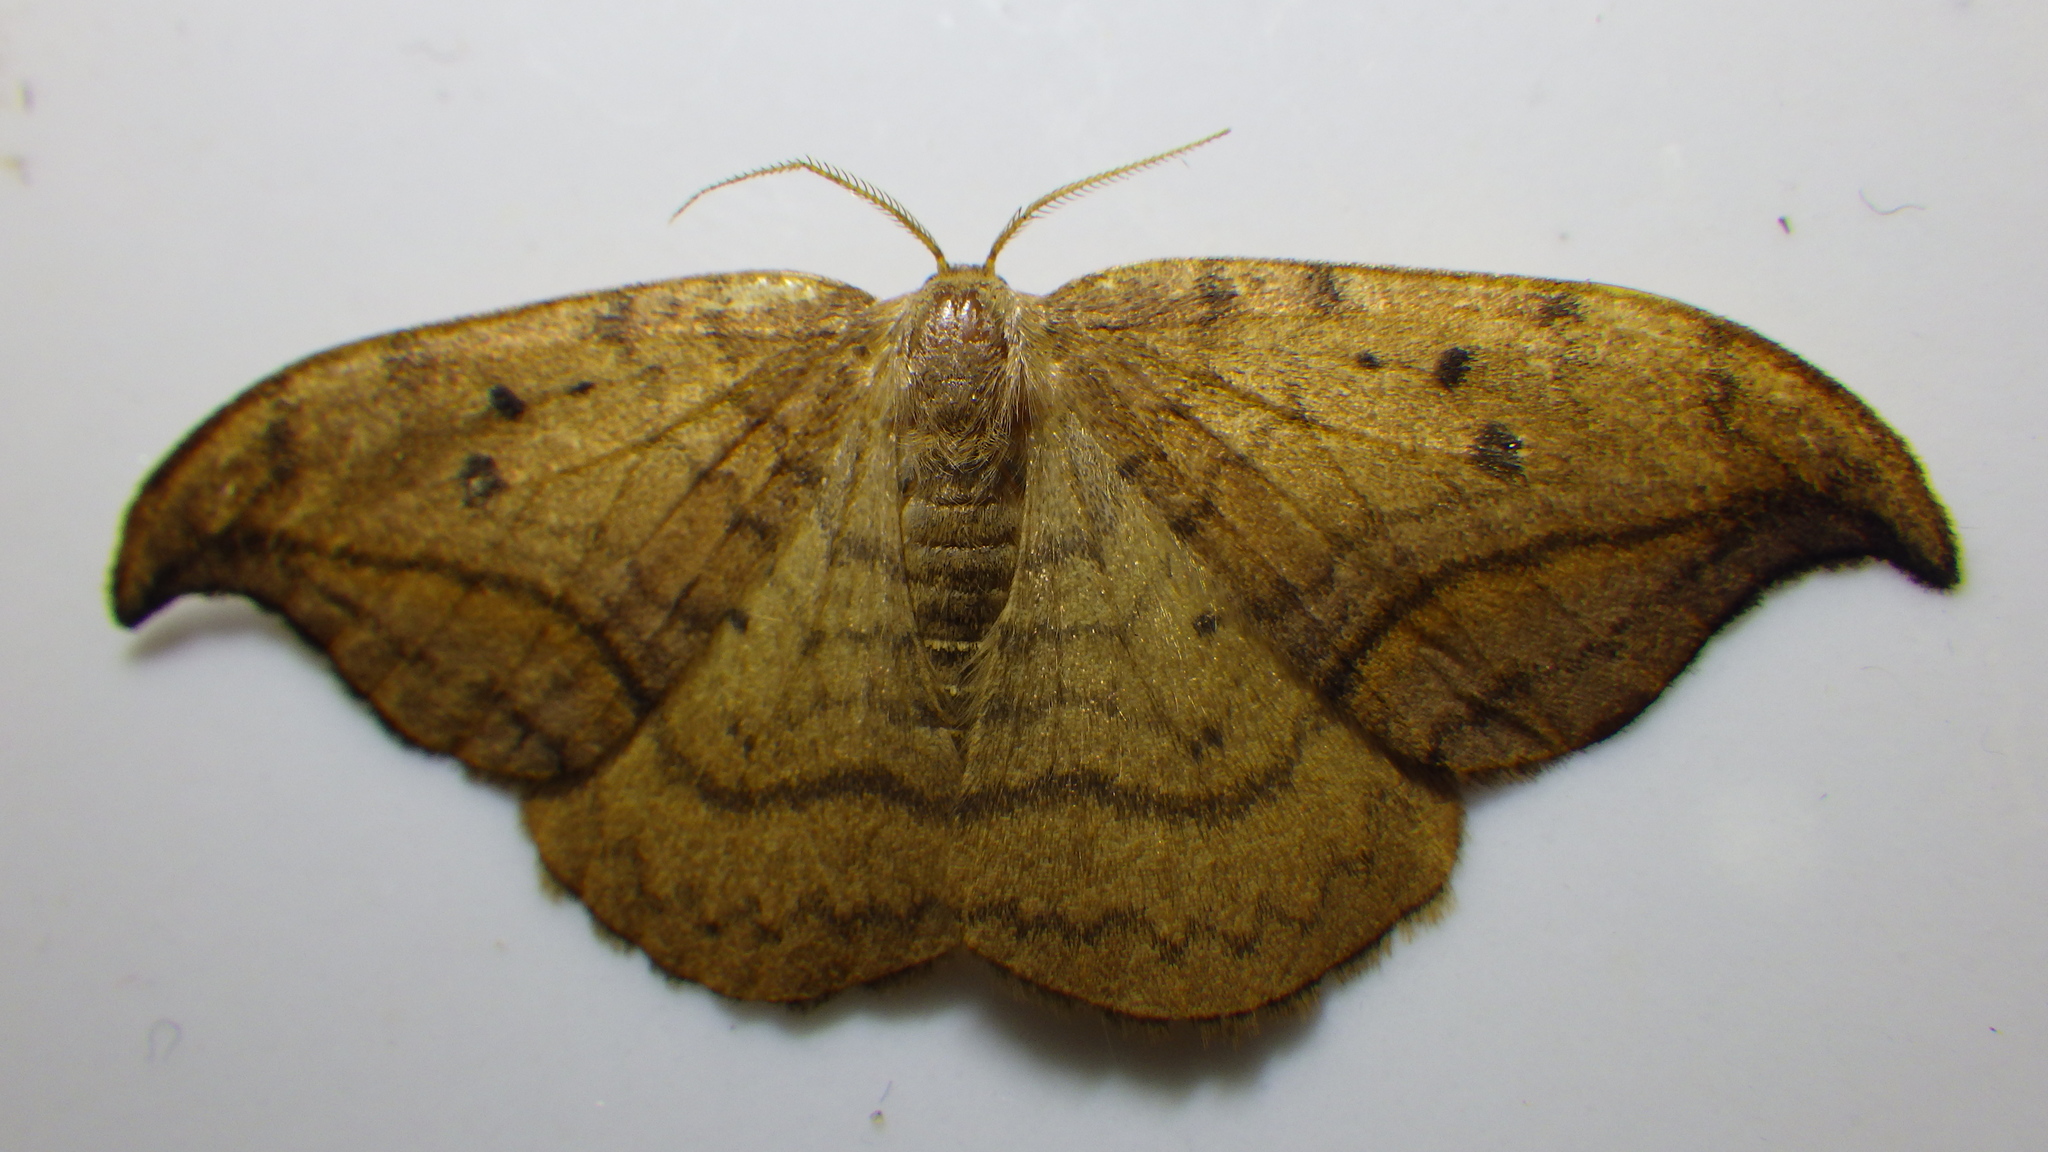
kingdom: Animalia
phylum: Arthropoda
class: Insecta
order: Lepidoptera
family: Drepanidae
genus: Drepana
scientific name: Drepana falcataria
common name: Pebble hook-tip
